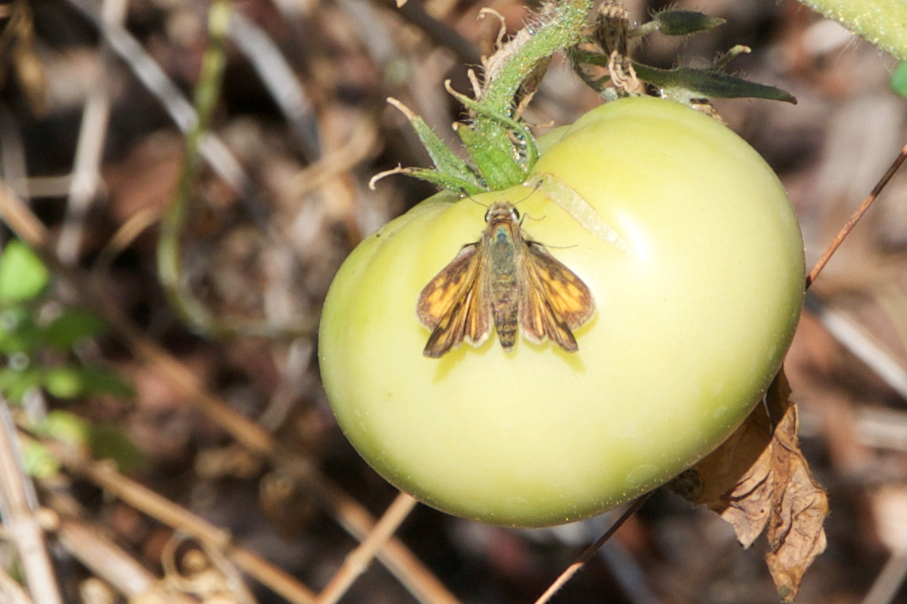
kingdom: Animalia
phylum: Arthropoda
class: Insecta
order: Lepidoptera
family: Hesperiidae
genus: Hylephila
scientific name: Hylephila phyleus
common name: Fiery skipper
